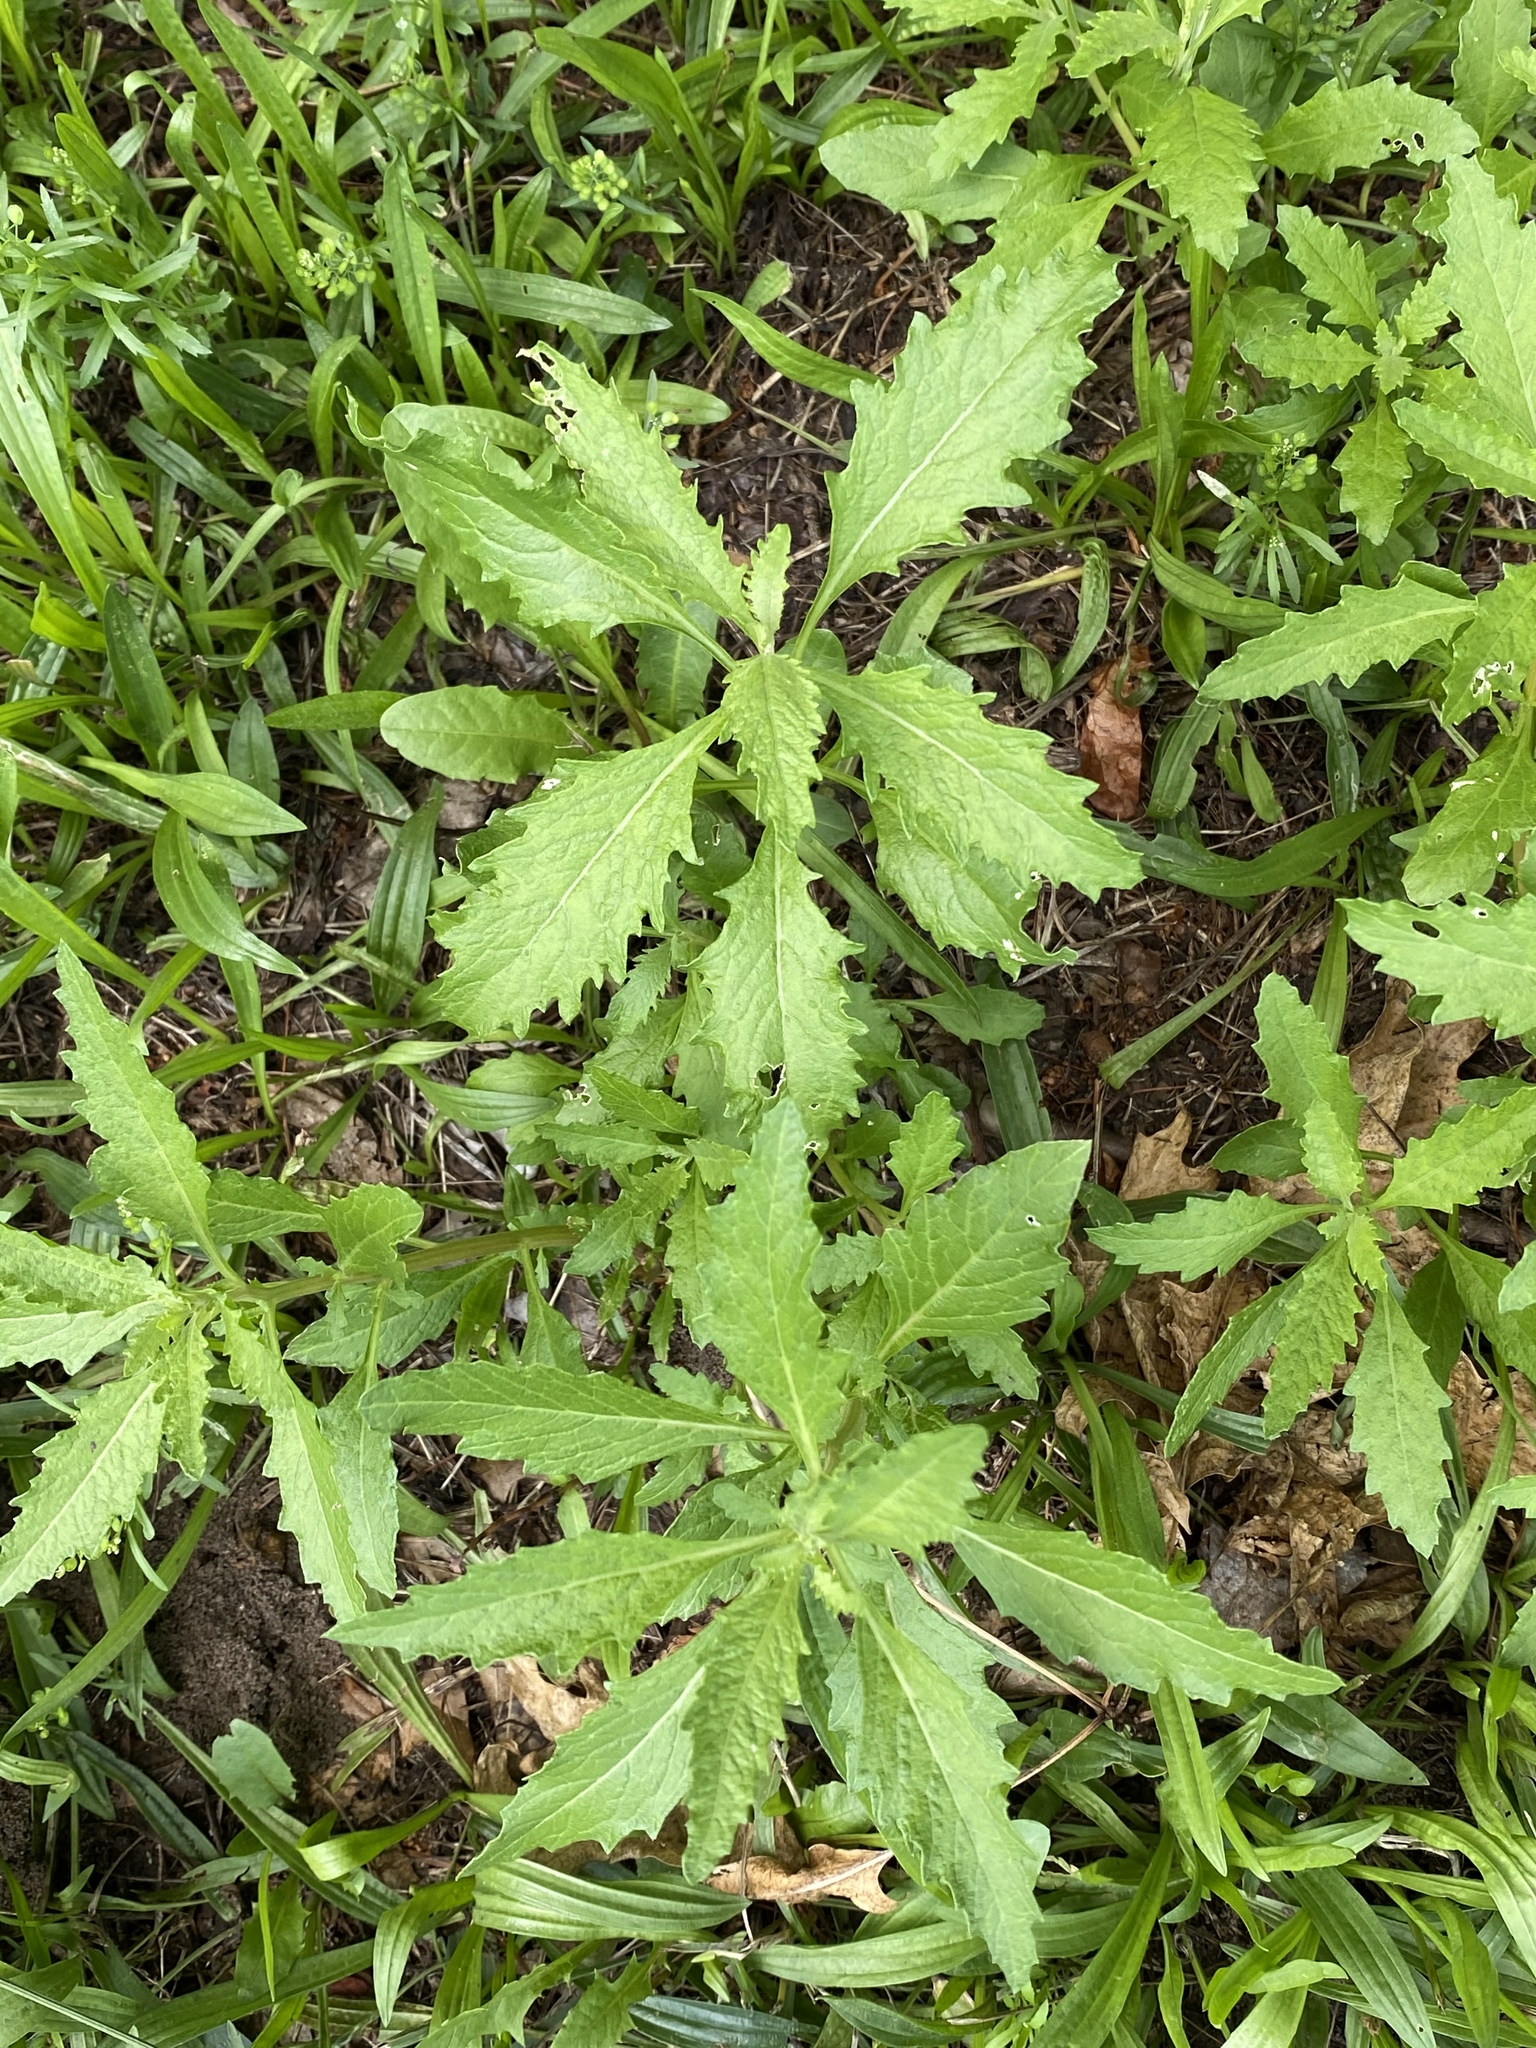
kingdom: Plantae
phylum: Tracheophyta
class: Magnoliopsida
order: Caryophyllales
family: Amaranthaceae
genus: Dysphania
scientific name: Dysphania ambrosioides
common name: Wormseed
